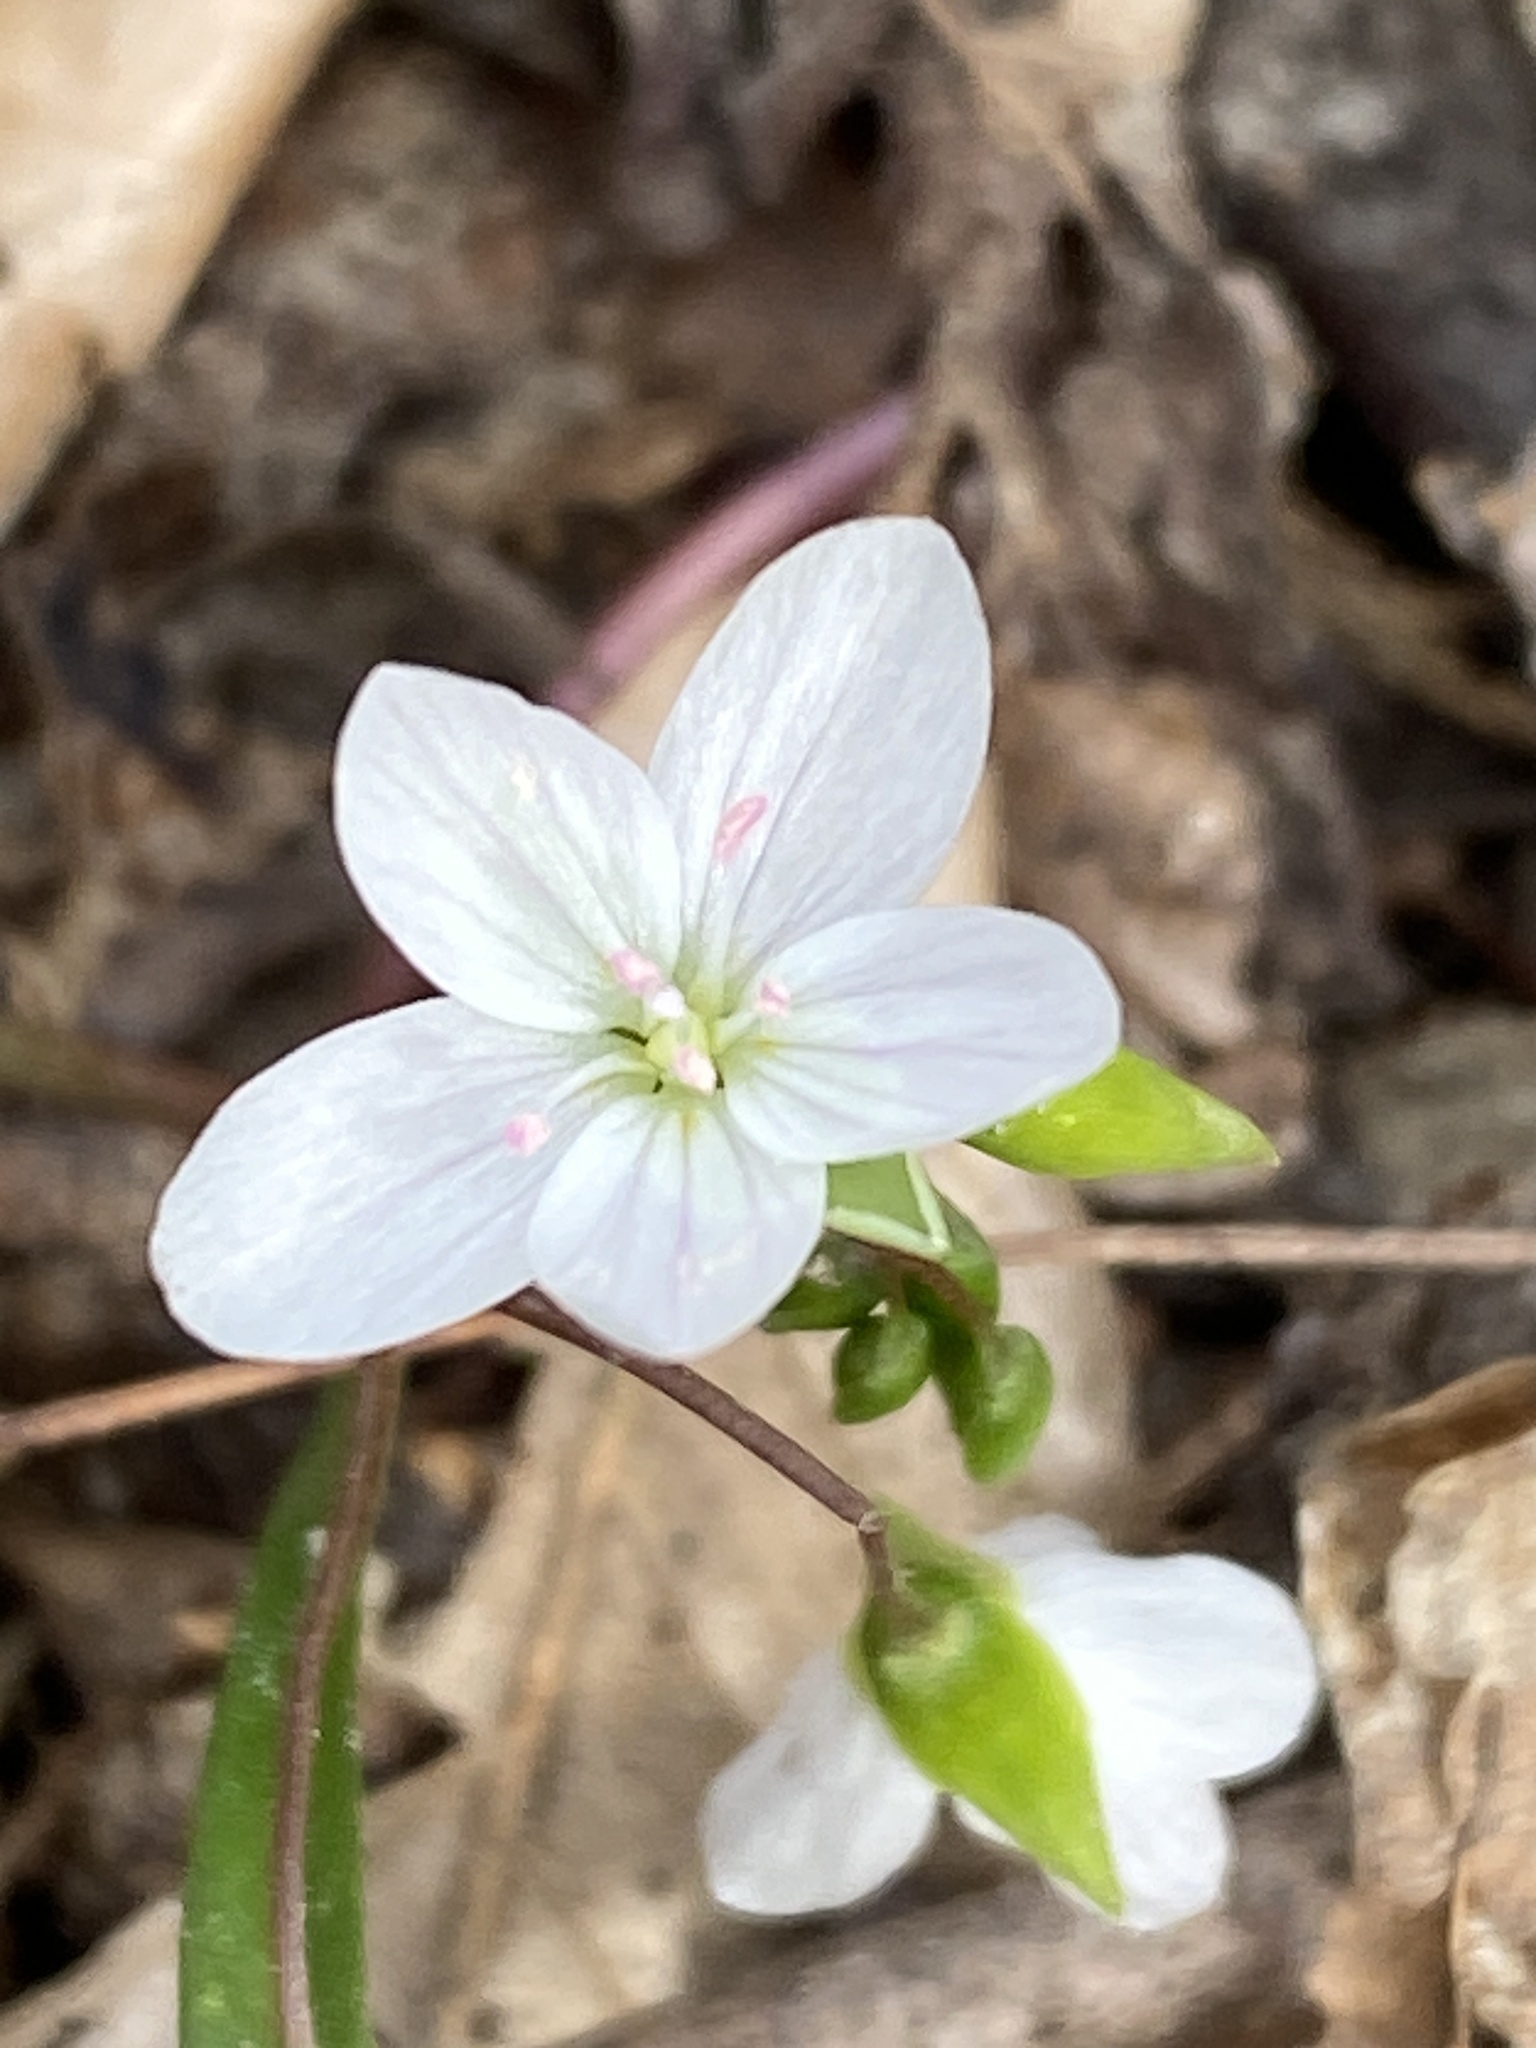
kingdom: Plantae
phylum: Tracheophyta
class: Magnoliopsida
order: Caryophyllales
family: Montiaceae
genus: Claytonia
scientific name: Claytonia virginica
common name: Virginia springbeauty
